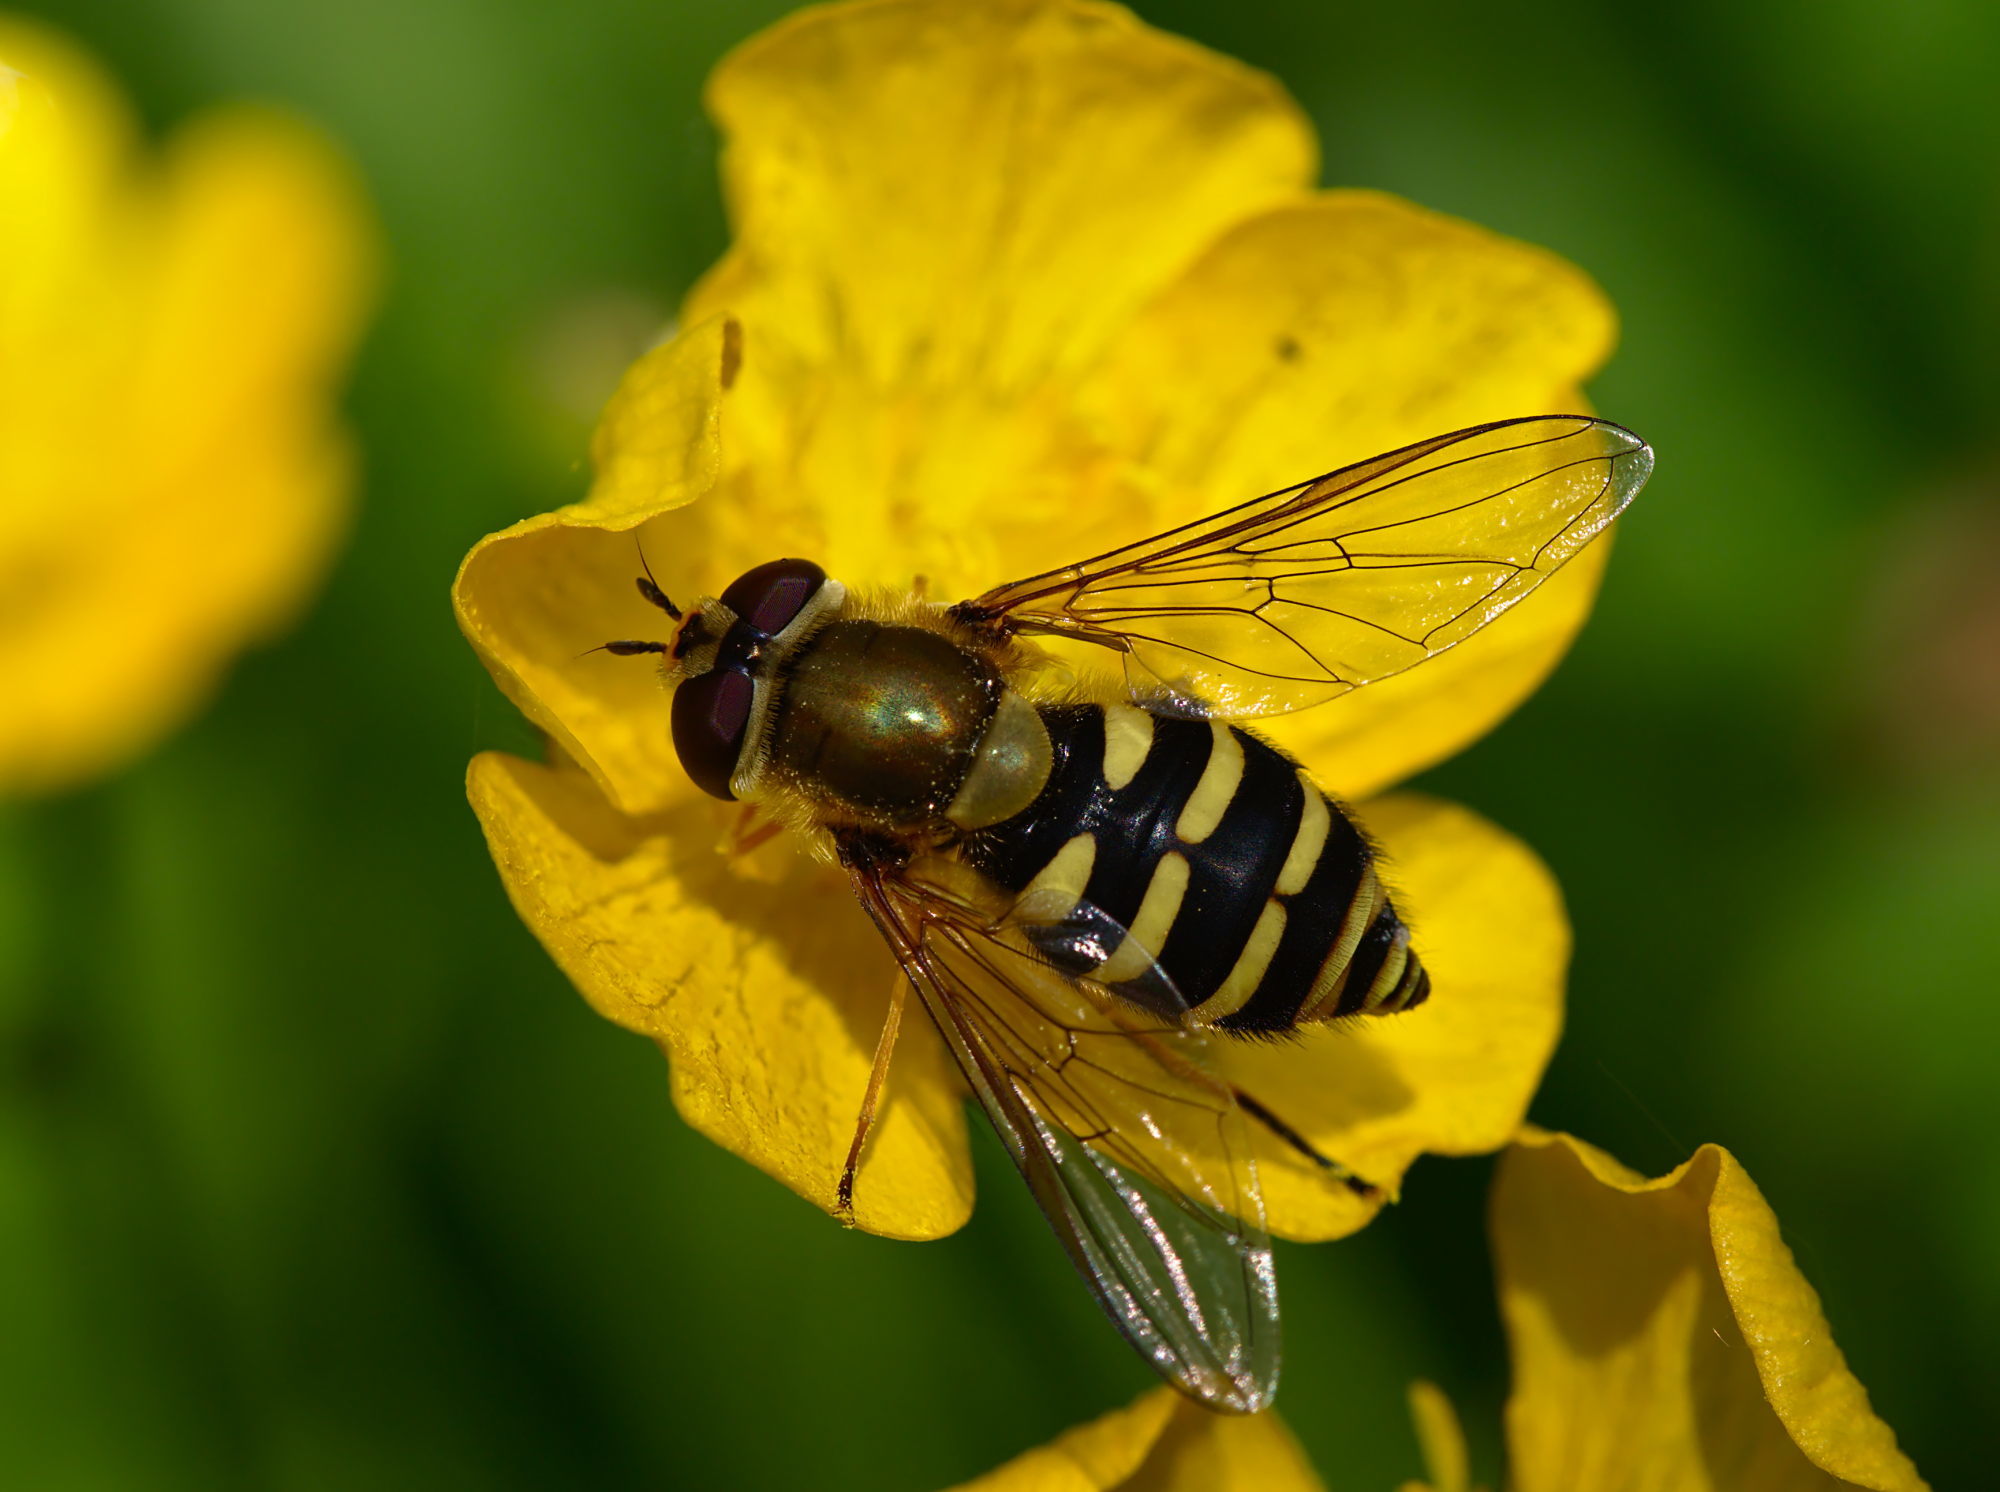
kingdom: Animalia
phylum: Arthropoda
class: Insecta
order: Diptera
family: Syrphidae
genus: Syrphus
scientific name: Syrphus
